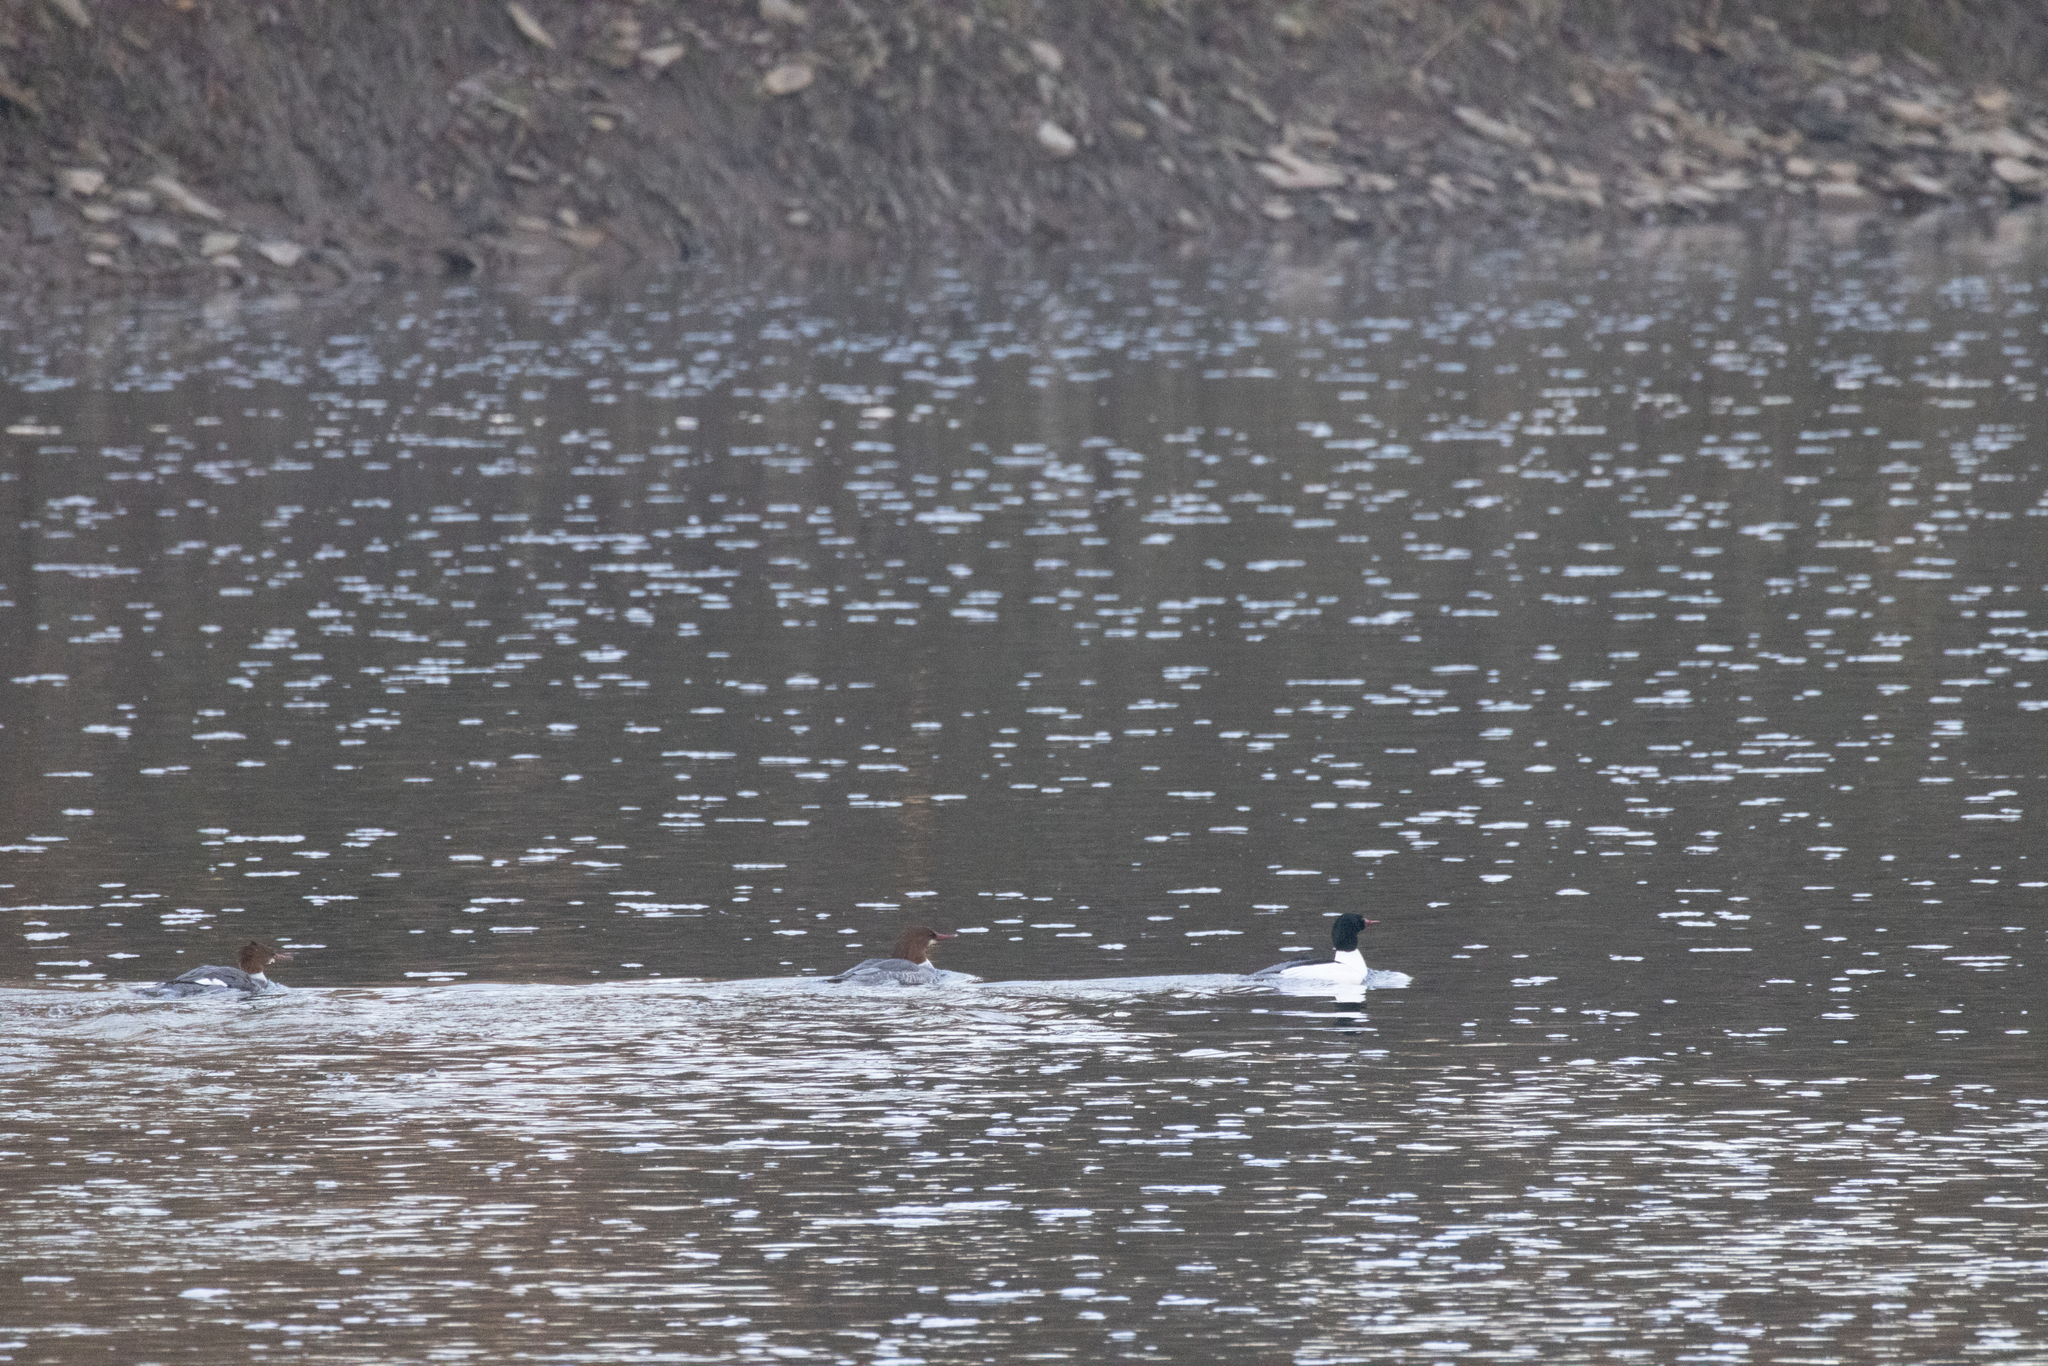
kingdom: Animalia
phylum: Chordata
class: Aves
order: Anseriformes
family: Anatidae
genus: Mergus
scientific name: Mergus merganser
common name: Common merganser
